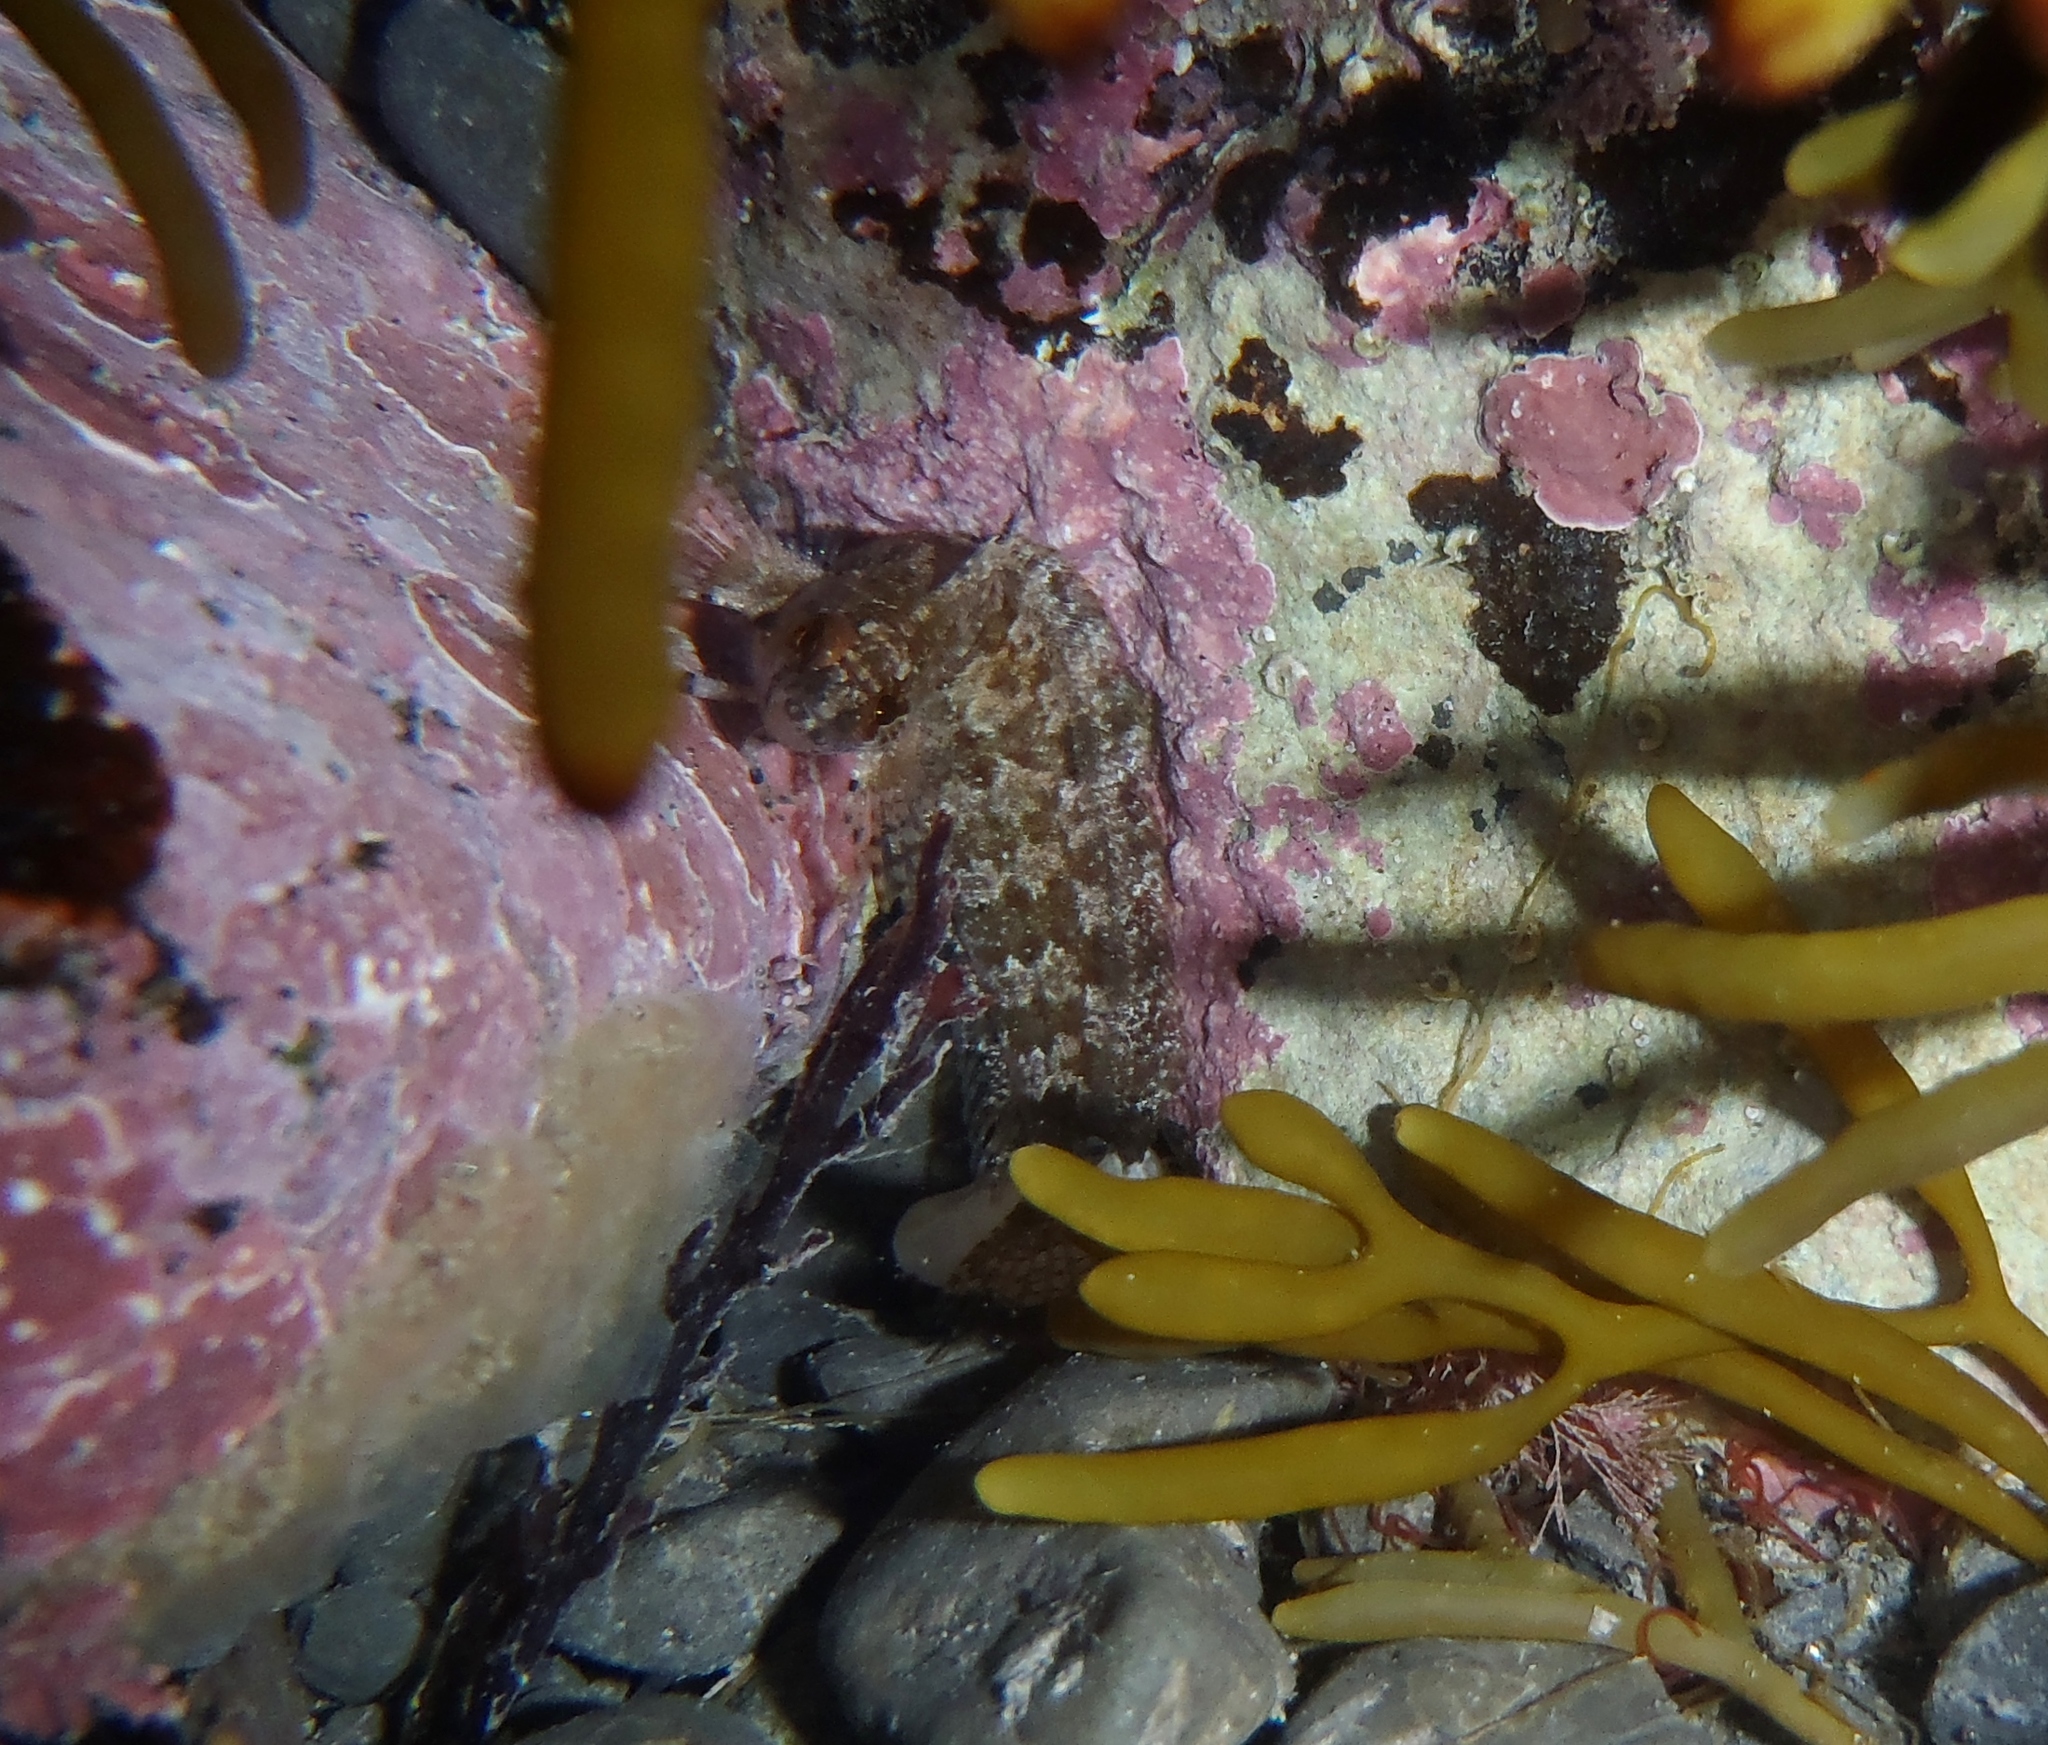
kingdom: Animalia
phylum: Chordata
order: Perciformes
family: Clinidae
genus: Ericentrus
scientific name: Ericentrus rubrus
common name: Orange clinid
